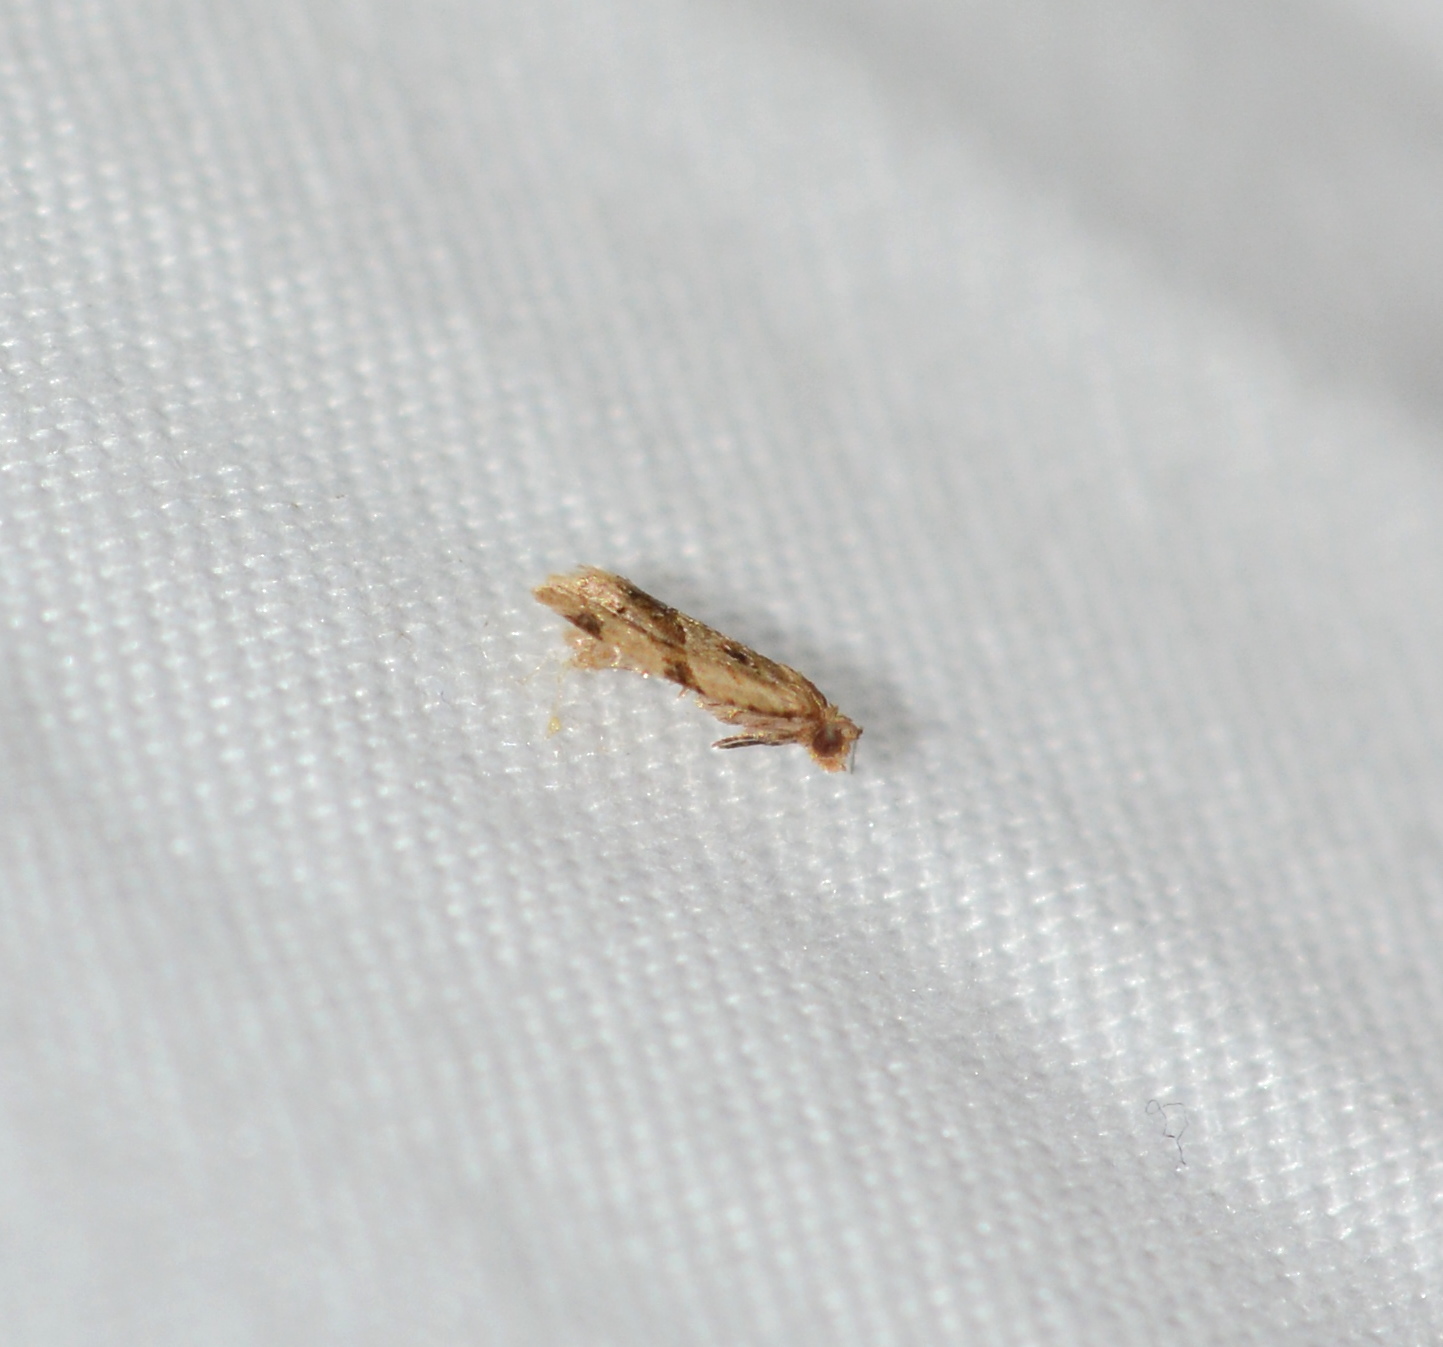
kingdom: Animalia
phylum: Arthropoda
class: Insecta
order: Lepidoptera
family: Tortricidae
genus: Clepsis
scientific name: Clepsis peritana
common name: Garden tortrix
